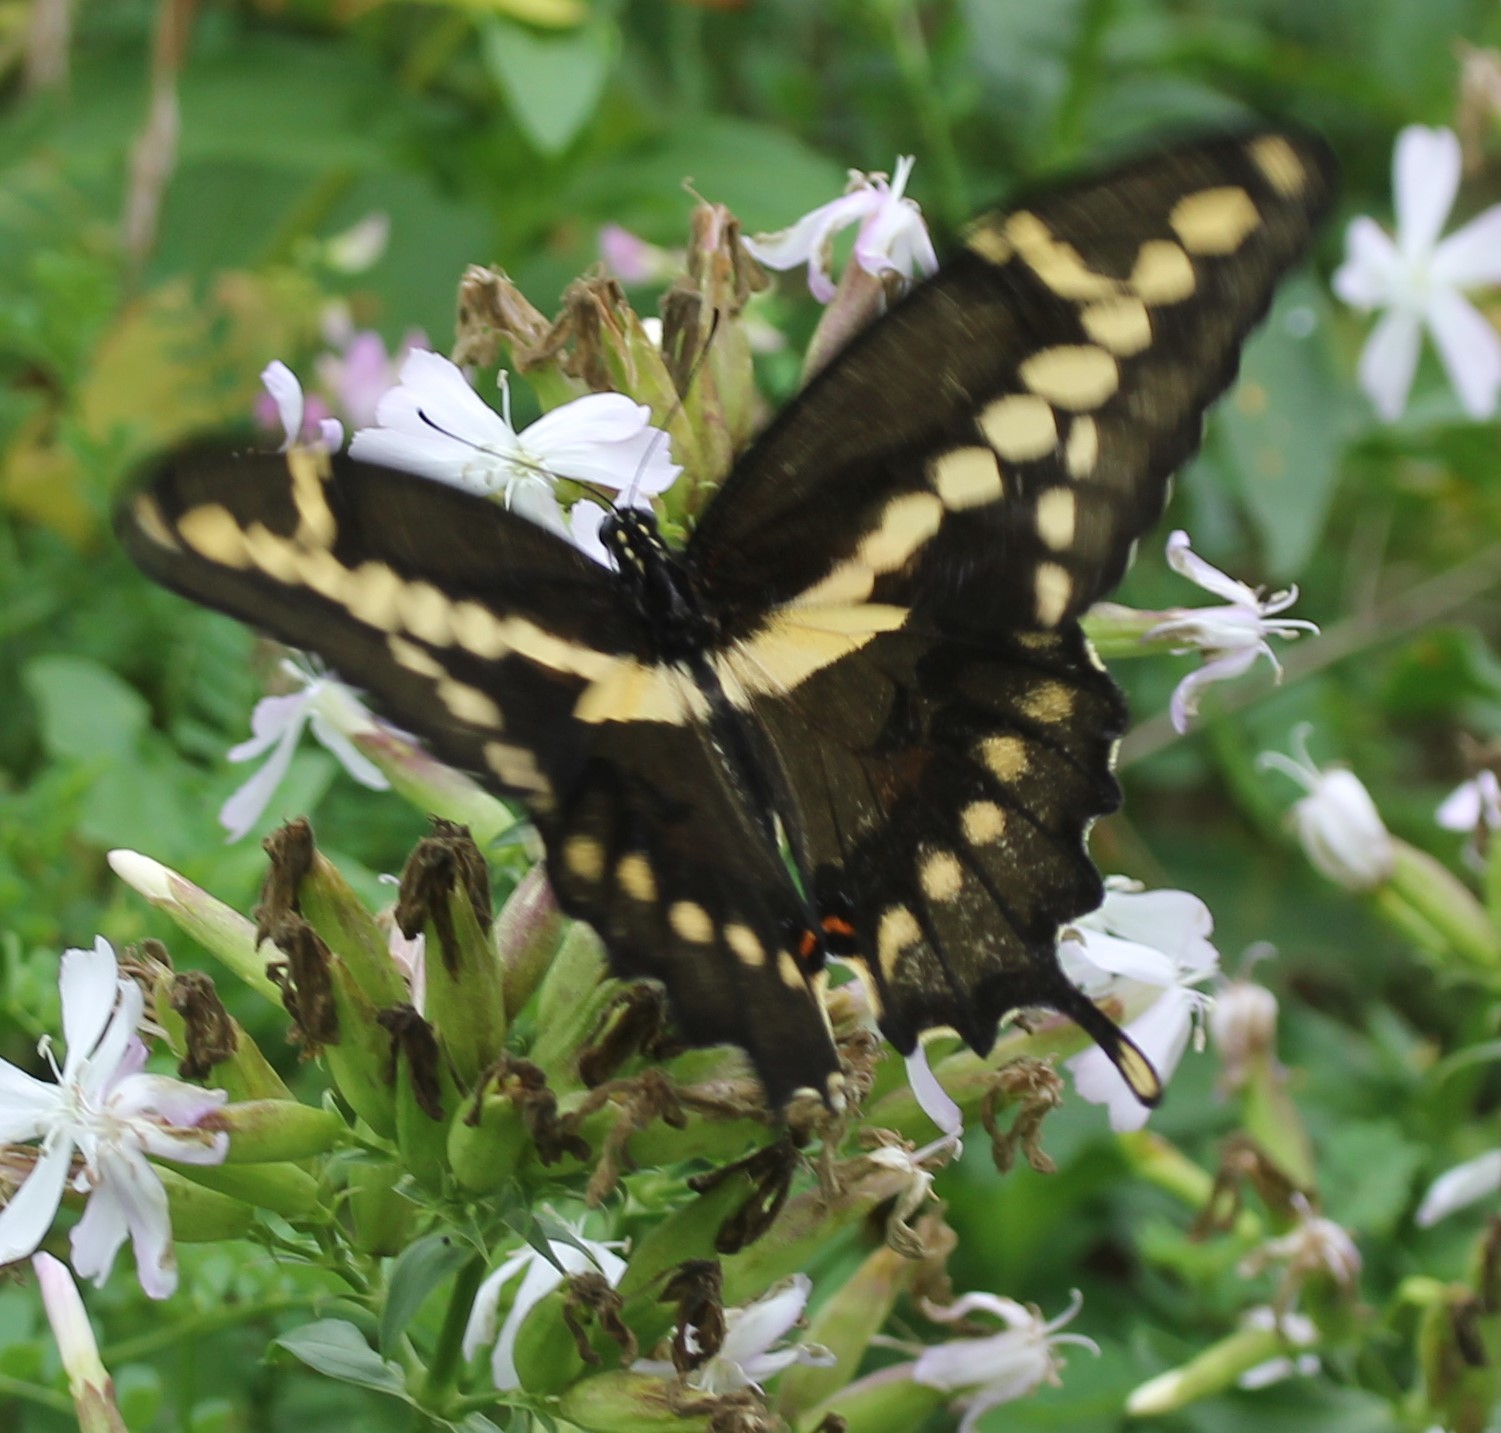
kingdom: Animalia
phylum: Arthropoda
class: Insecta
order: Lepidoptera
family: Papilionidae
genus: Papilio
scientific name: Papilio cresphontes
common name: Giant swallowtail
